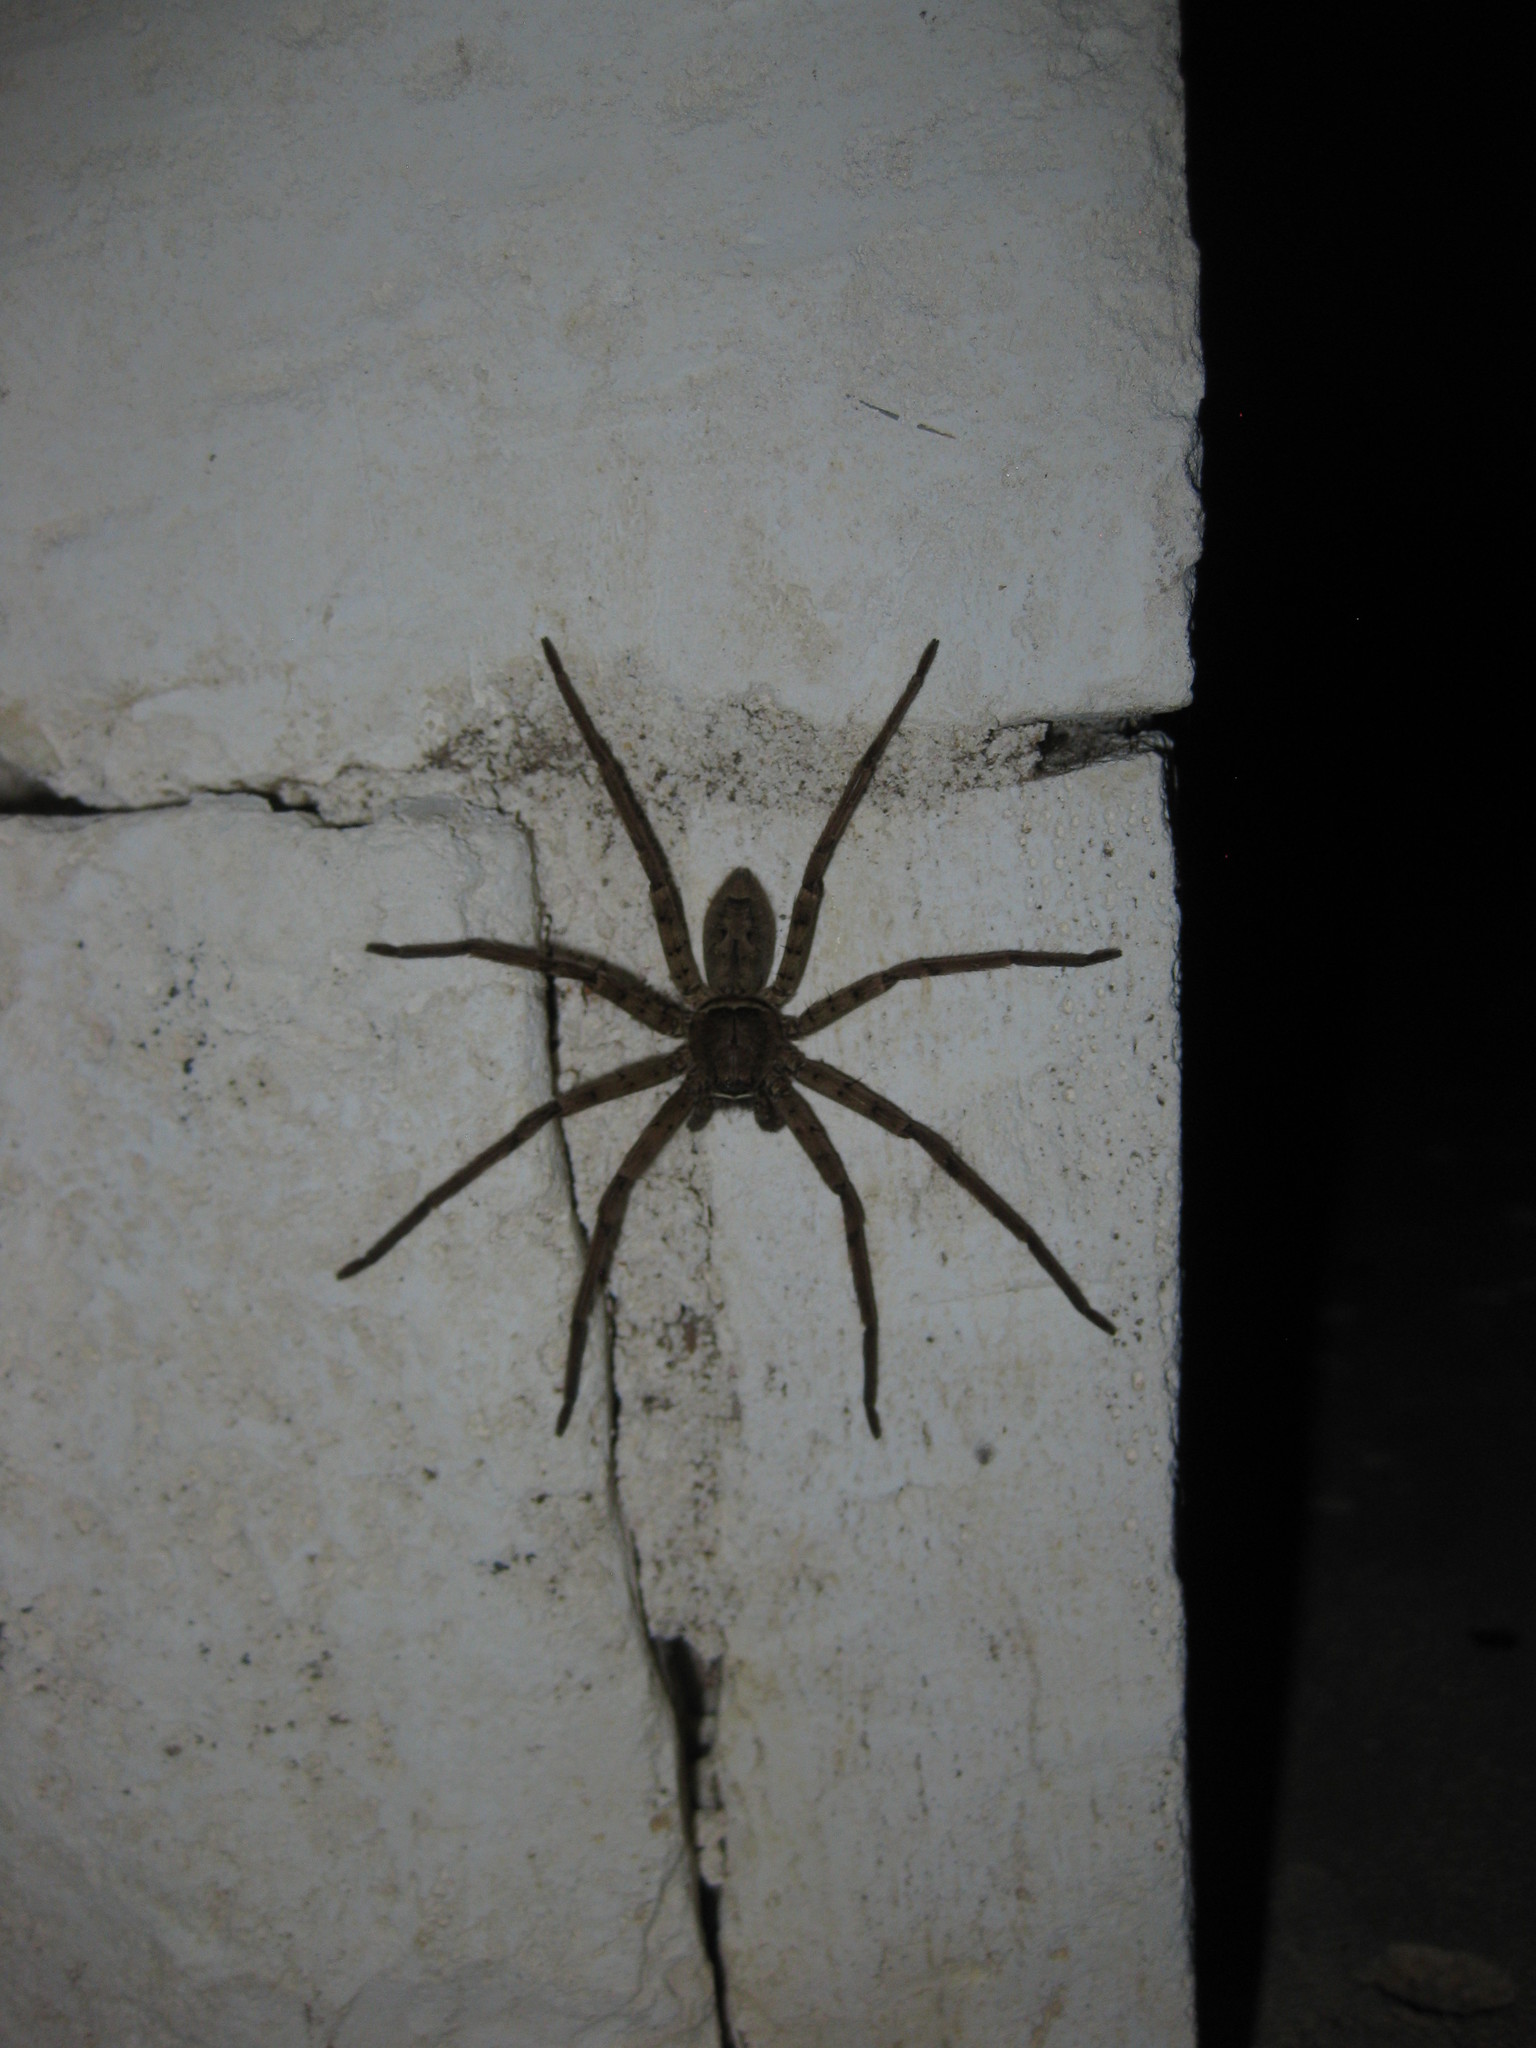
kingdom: Animalia
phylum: Arthropoda
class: Arachnida
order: Araneae
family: Sparassidae
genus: Heteropoda
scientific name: Heteropoda venatoria
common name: Huntsman spider
